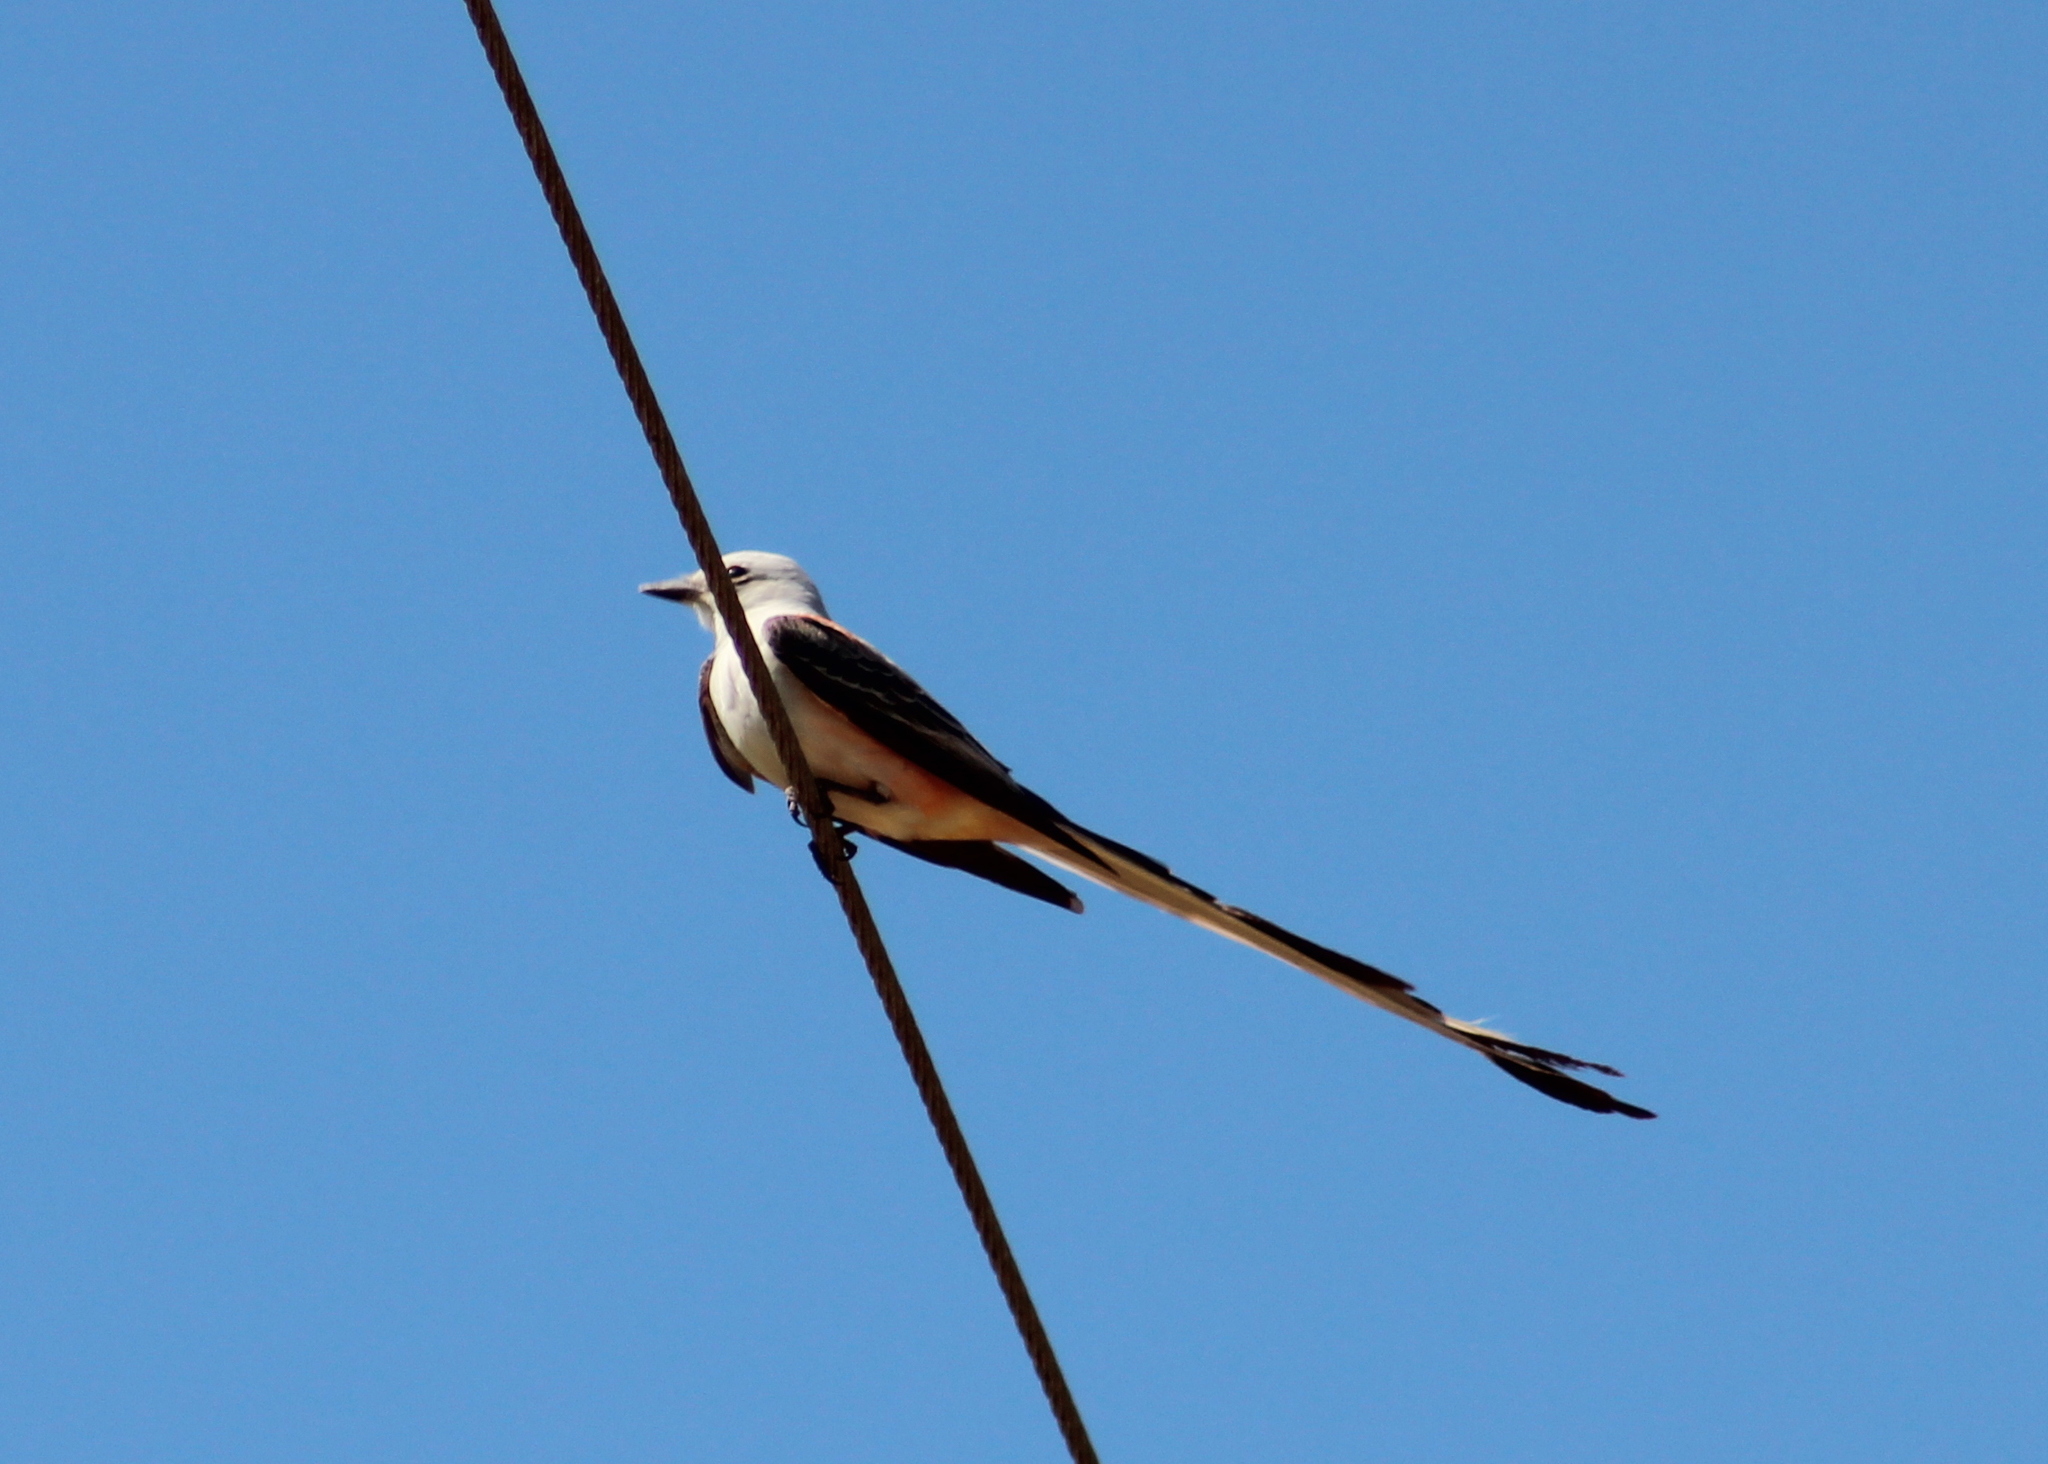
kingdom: Animalia
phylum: Chordata
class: Aves
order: Passeriformes
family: Tyrannidae
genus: Tyrannus
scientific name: Tyrannus forficatus
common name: Scissor-tailed flycatcher
